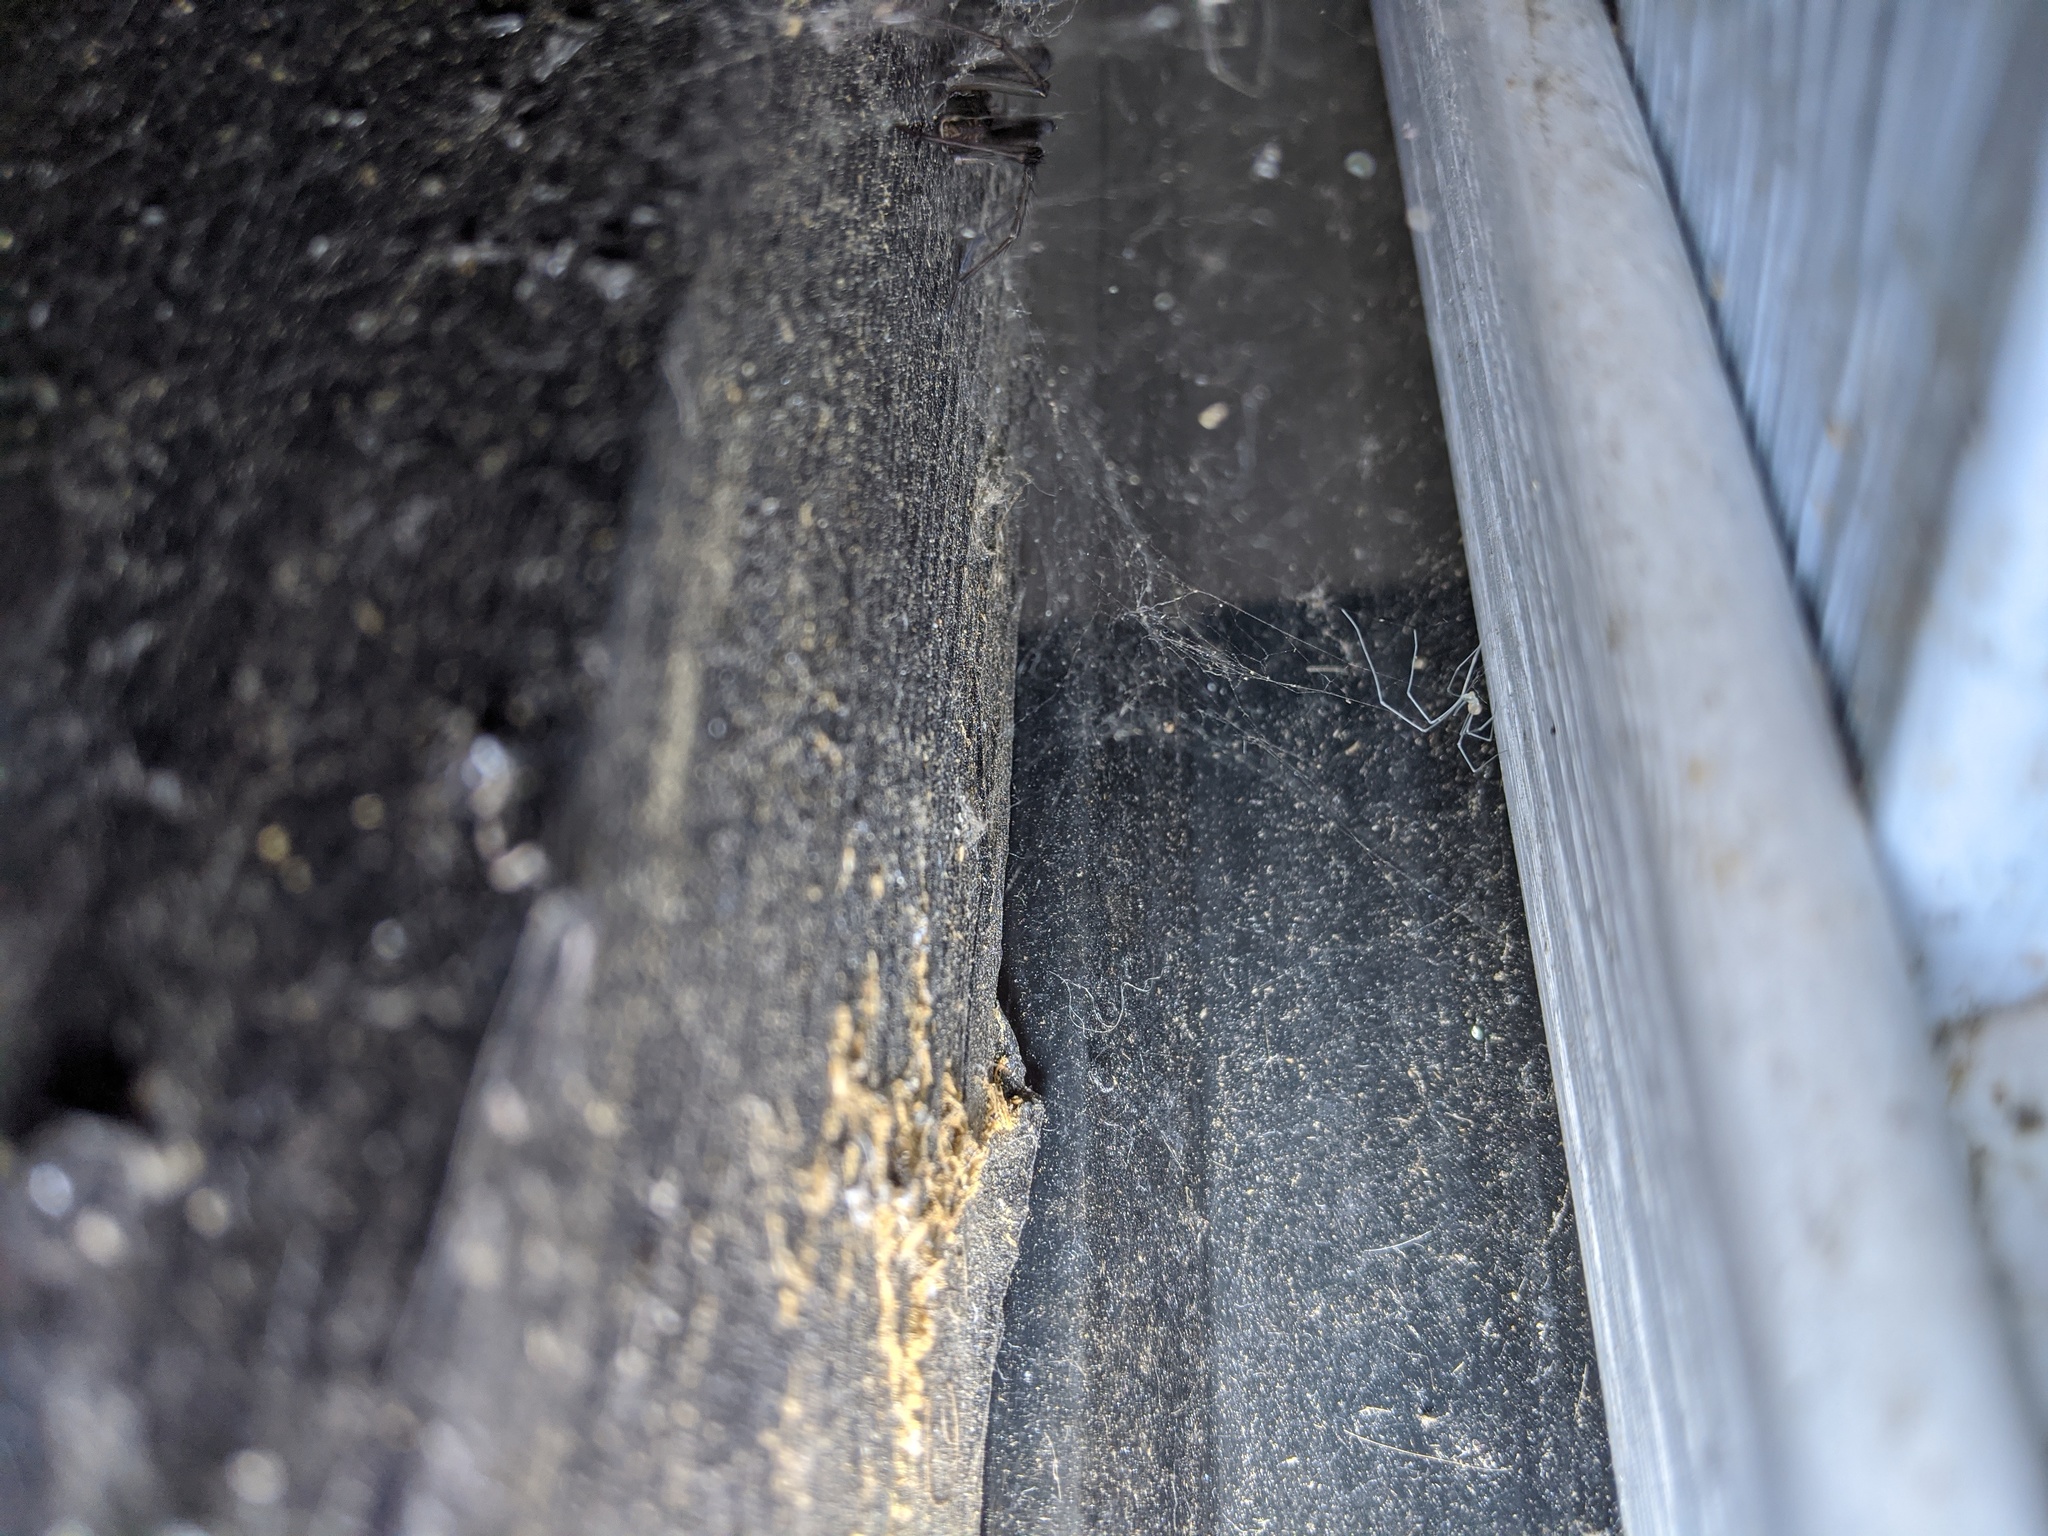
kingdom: Animalia
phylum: Arthropoda
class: Arachnida
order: Araneae
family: Agelenidae
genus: Eratigena
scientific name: Eratigena duellica
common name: Giant house spider
